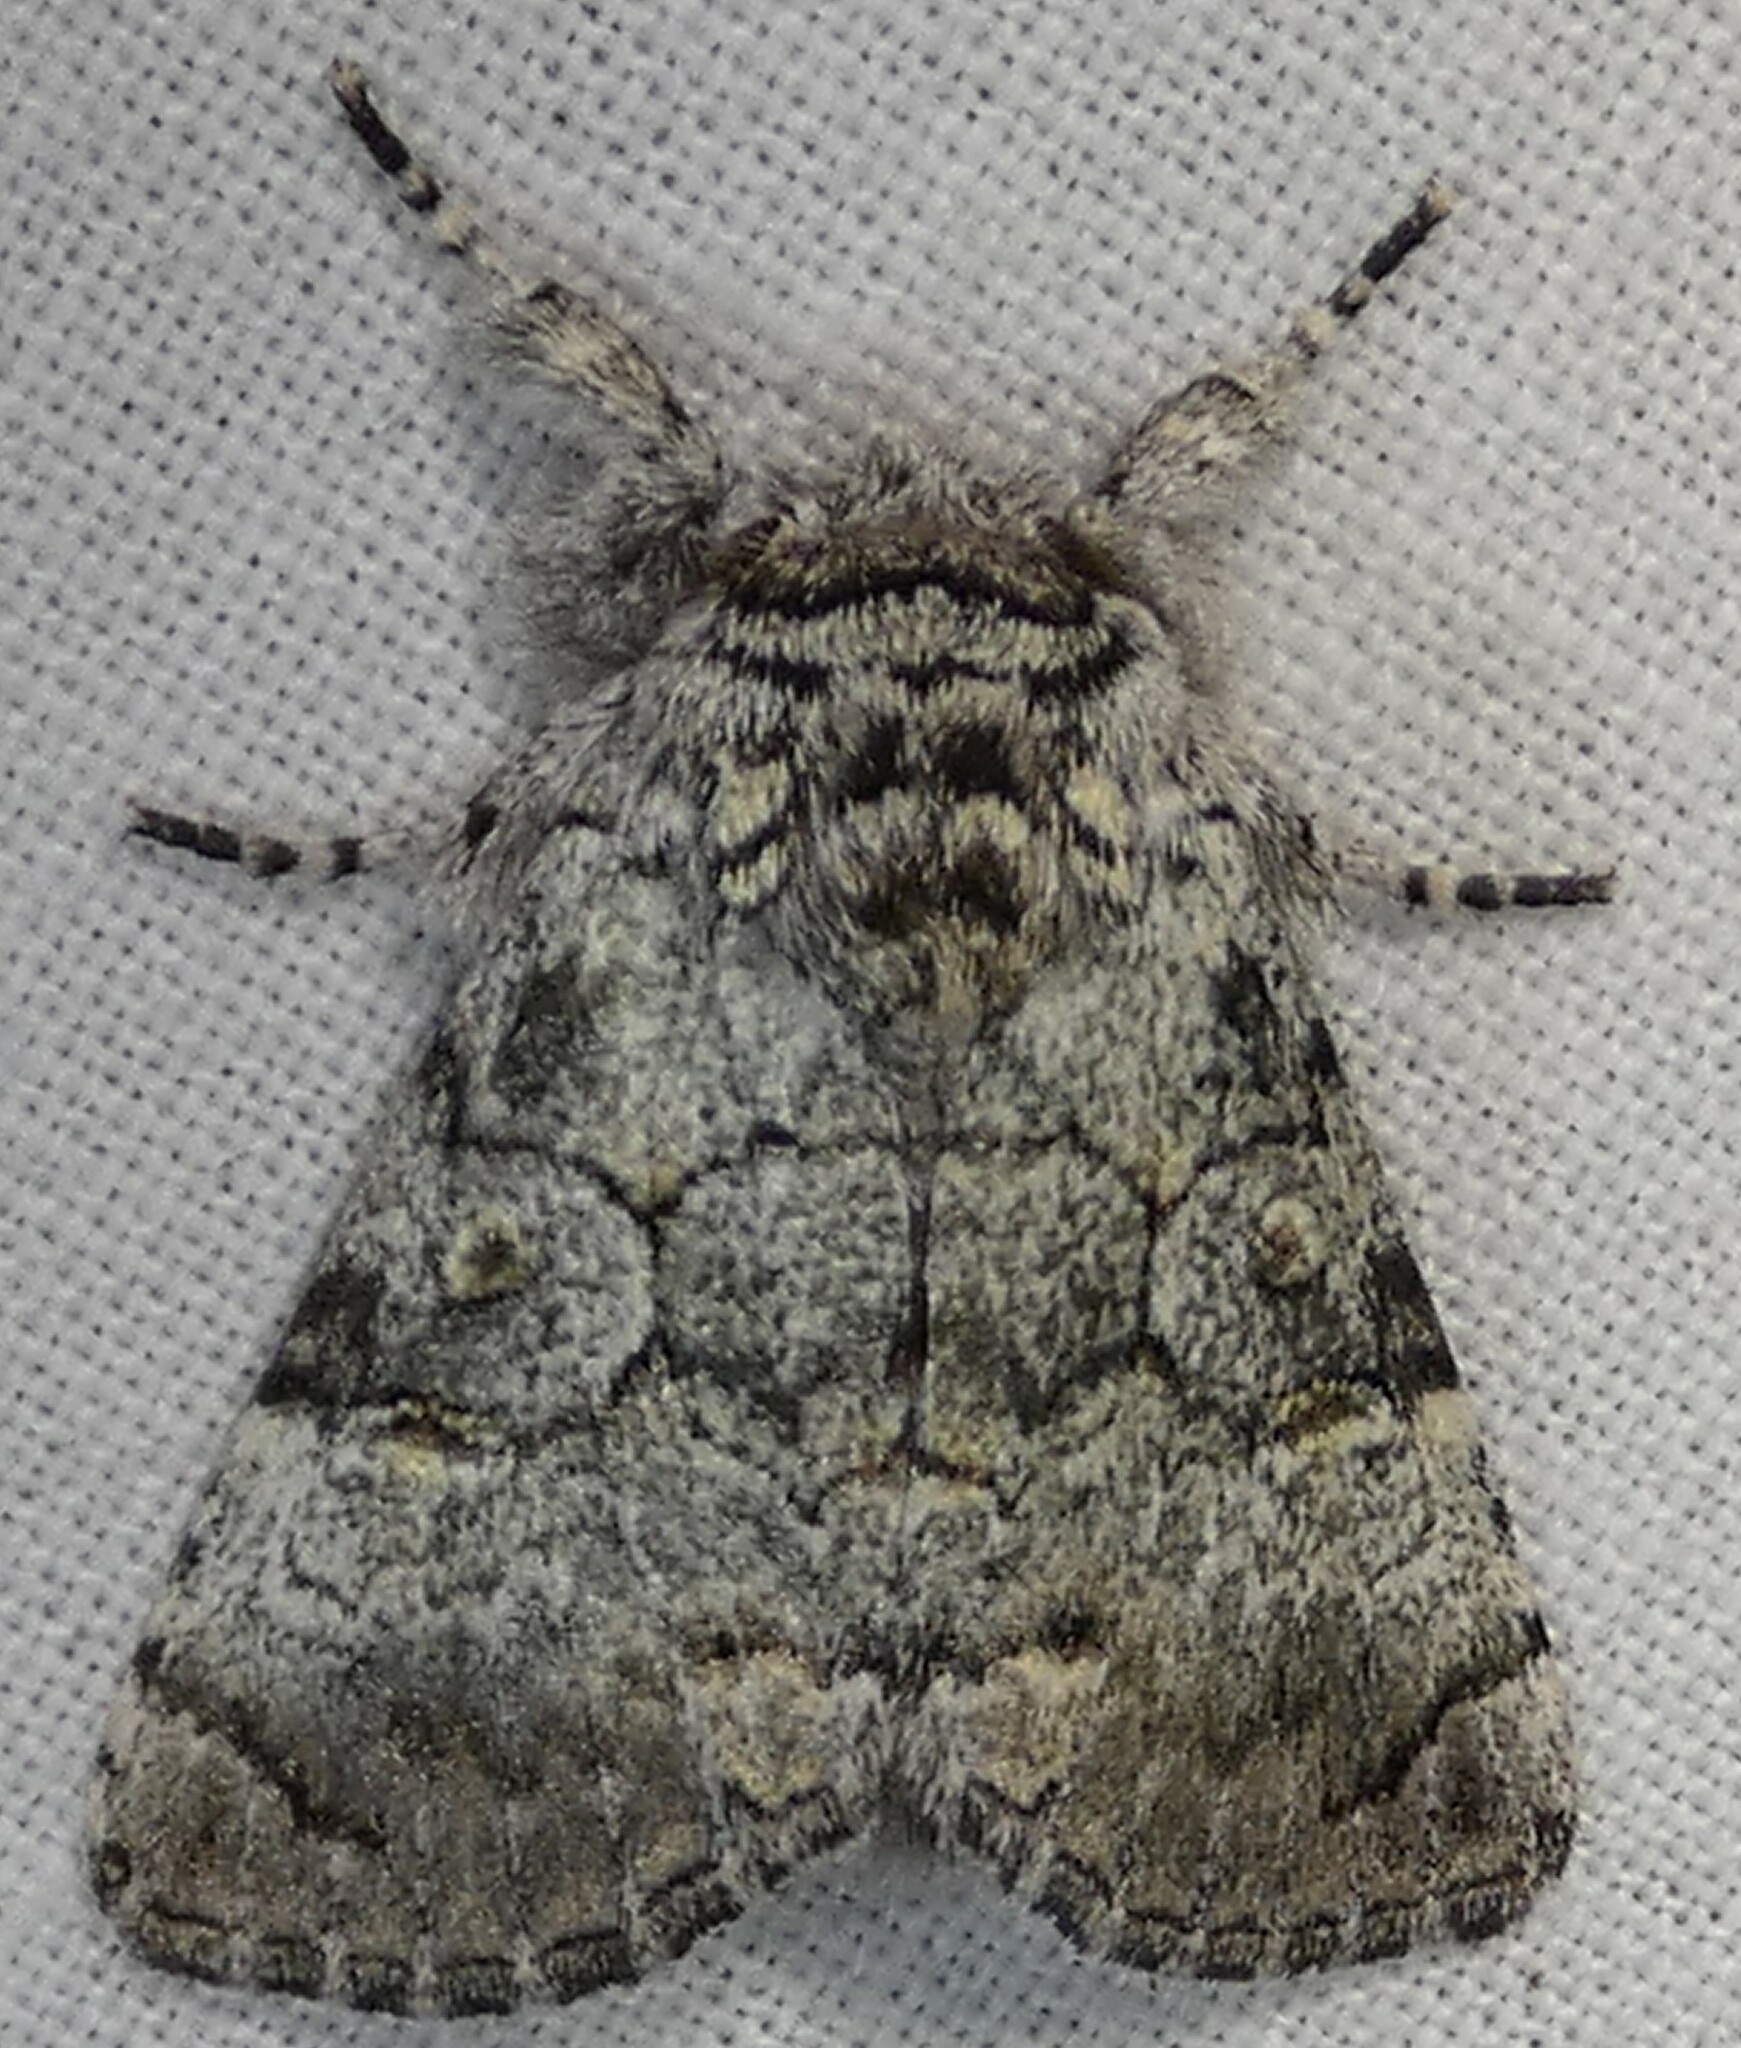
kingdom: Animalia
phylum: Arthropoda
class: Insecta
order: Lepidoptera
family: Noctuidae
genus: Charadra
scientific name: Charadra deridens
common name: Marbled tuffet
